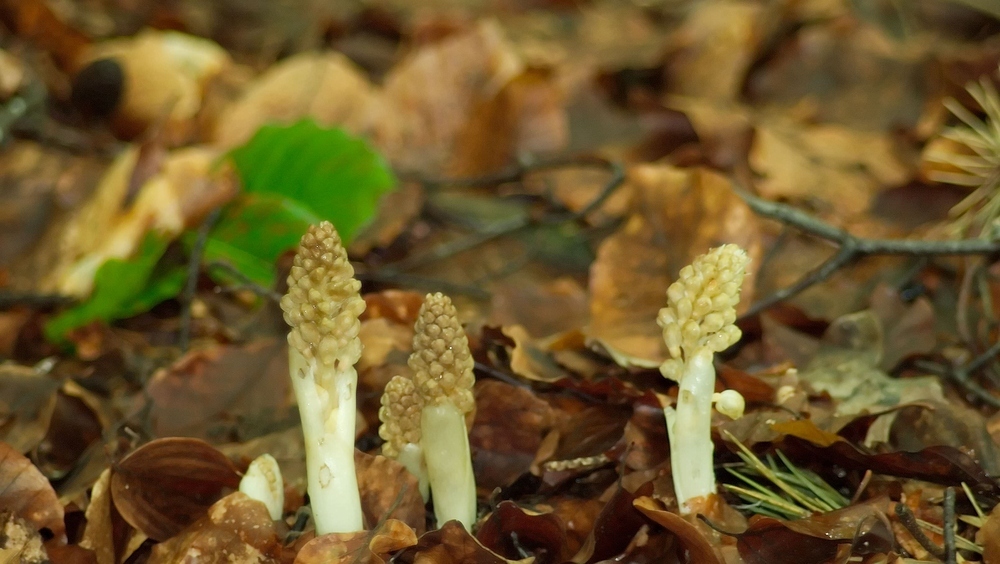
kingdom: Plantae
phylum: Tracheophyta
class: Liliopsida
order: Asparagales
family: Orchidaceae
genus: Neottia
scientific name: Neottia nidus-avis
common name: Bird's-nest orchid
